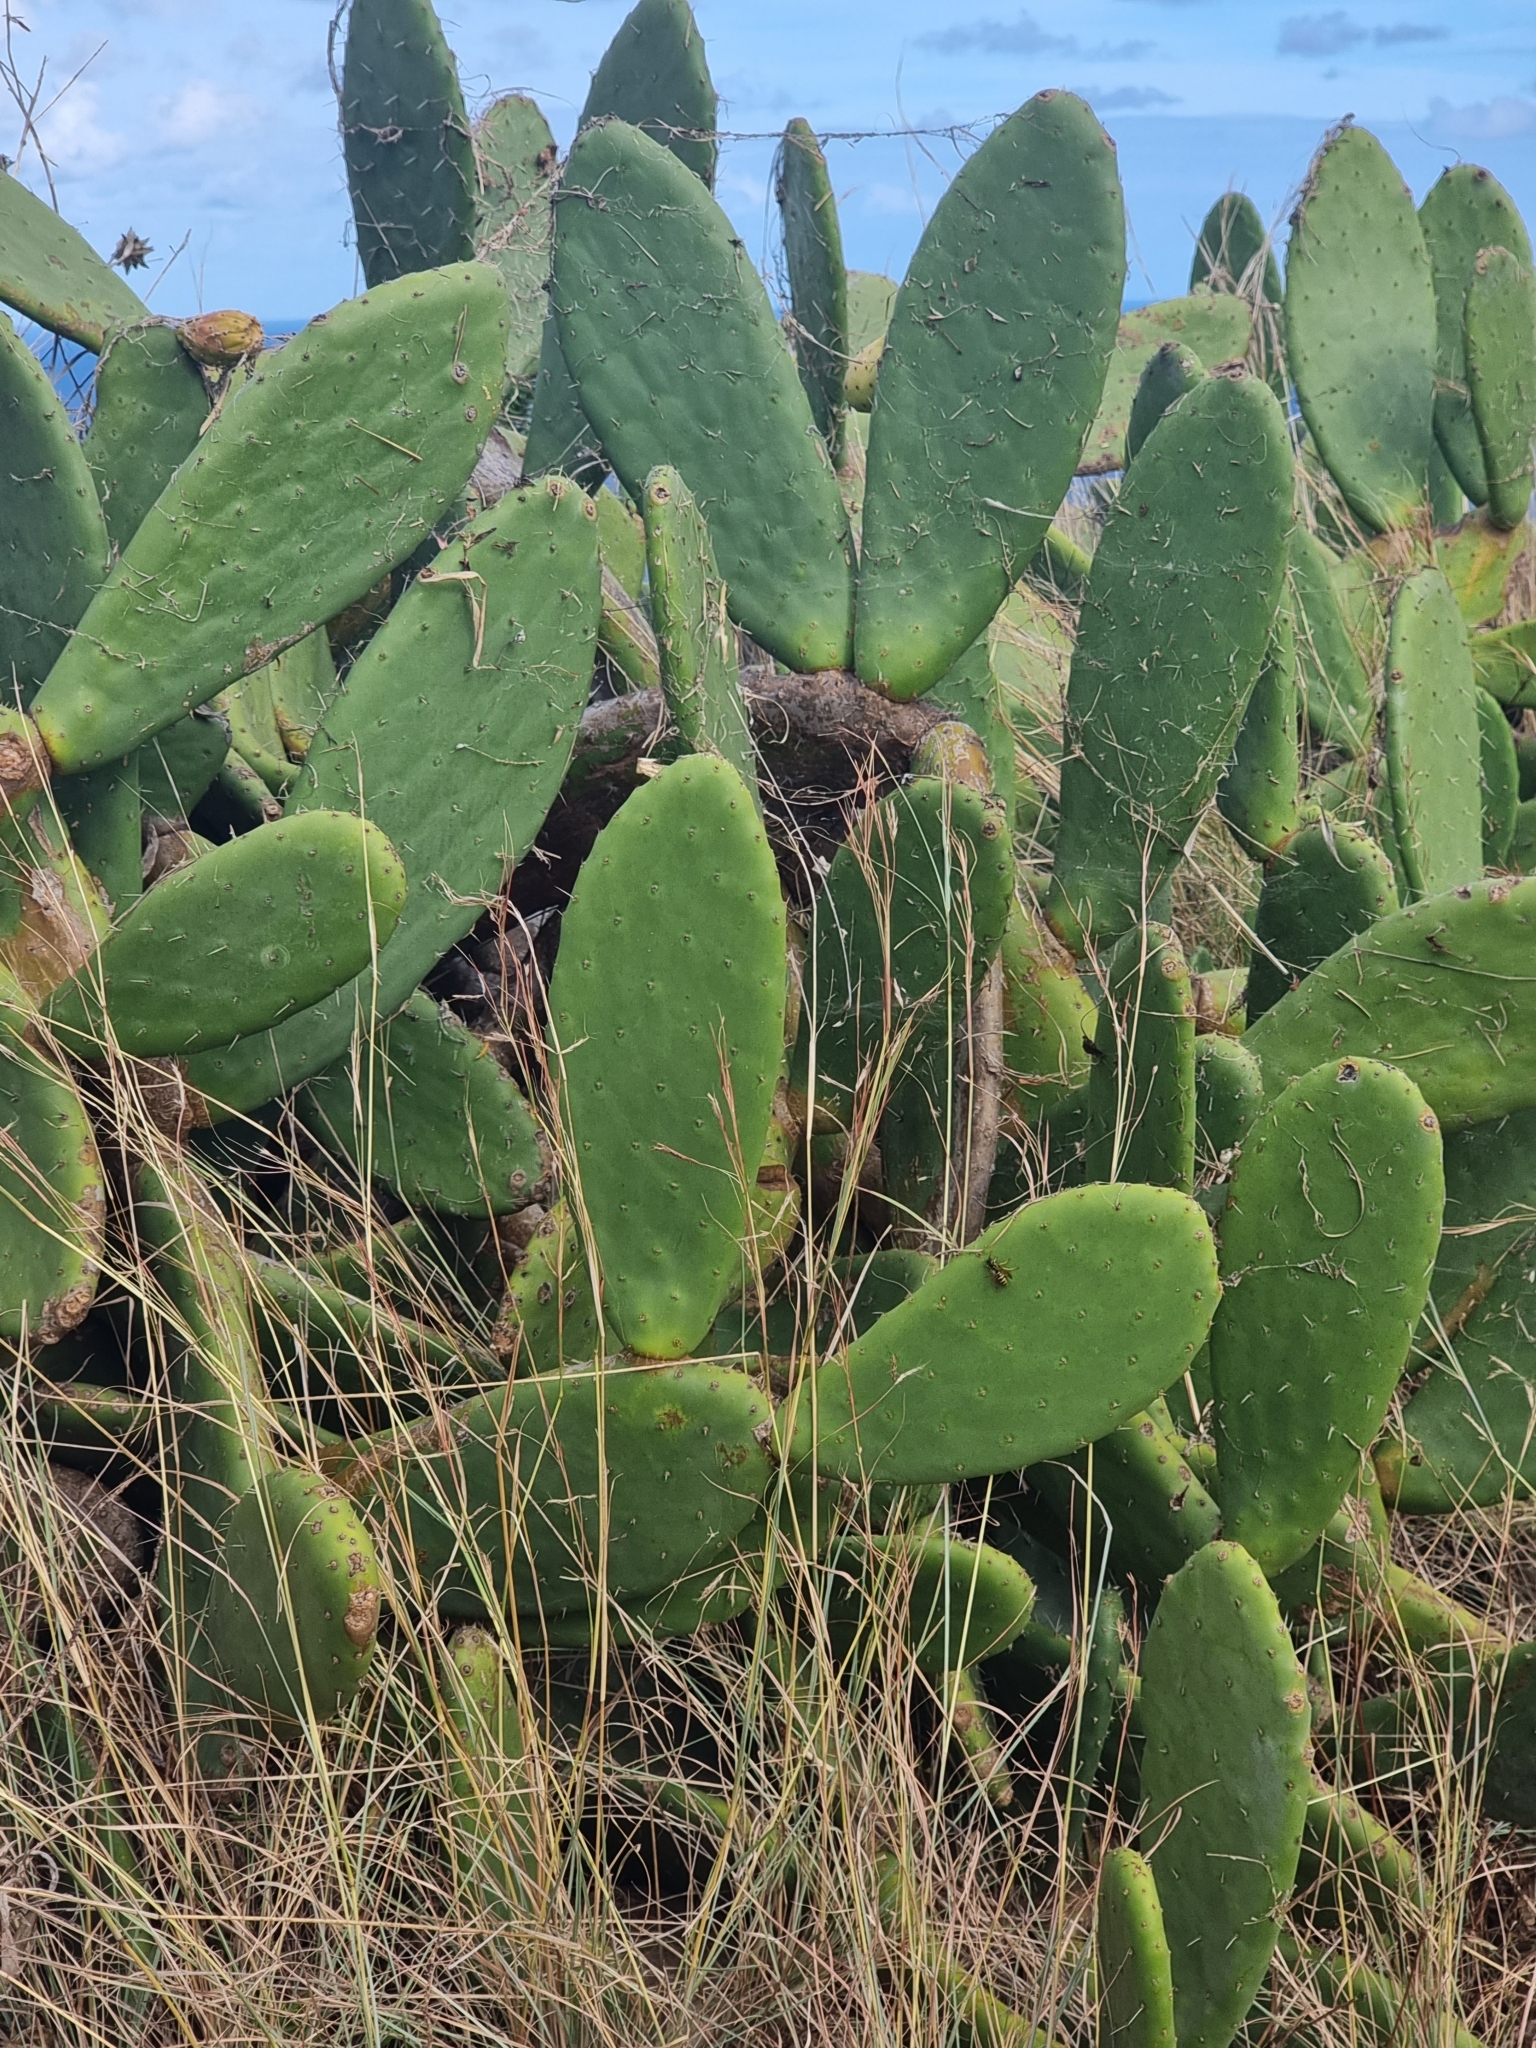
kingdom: Plantae
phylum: Tracheophyta
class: Magnoliopsida
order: Caryophyllales
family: Cactaceae
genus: Opuntia
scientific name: Opuntia ficus-indica
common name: Barbary fig
